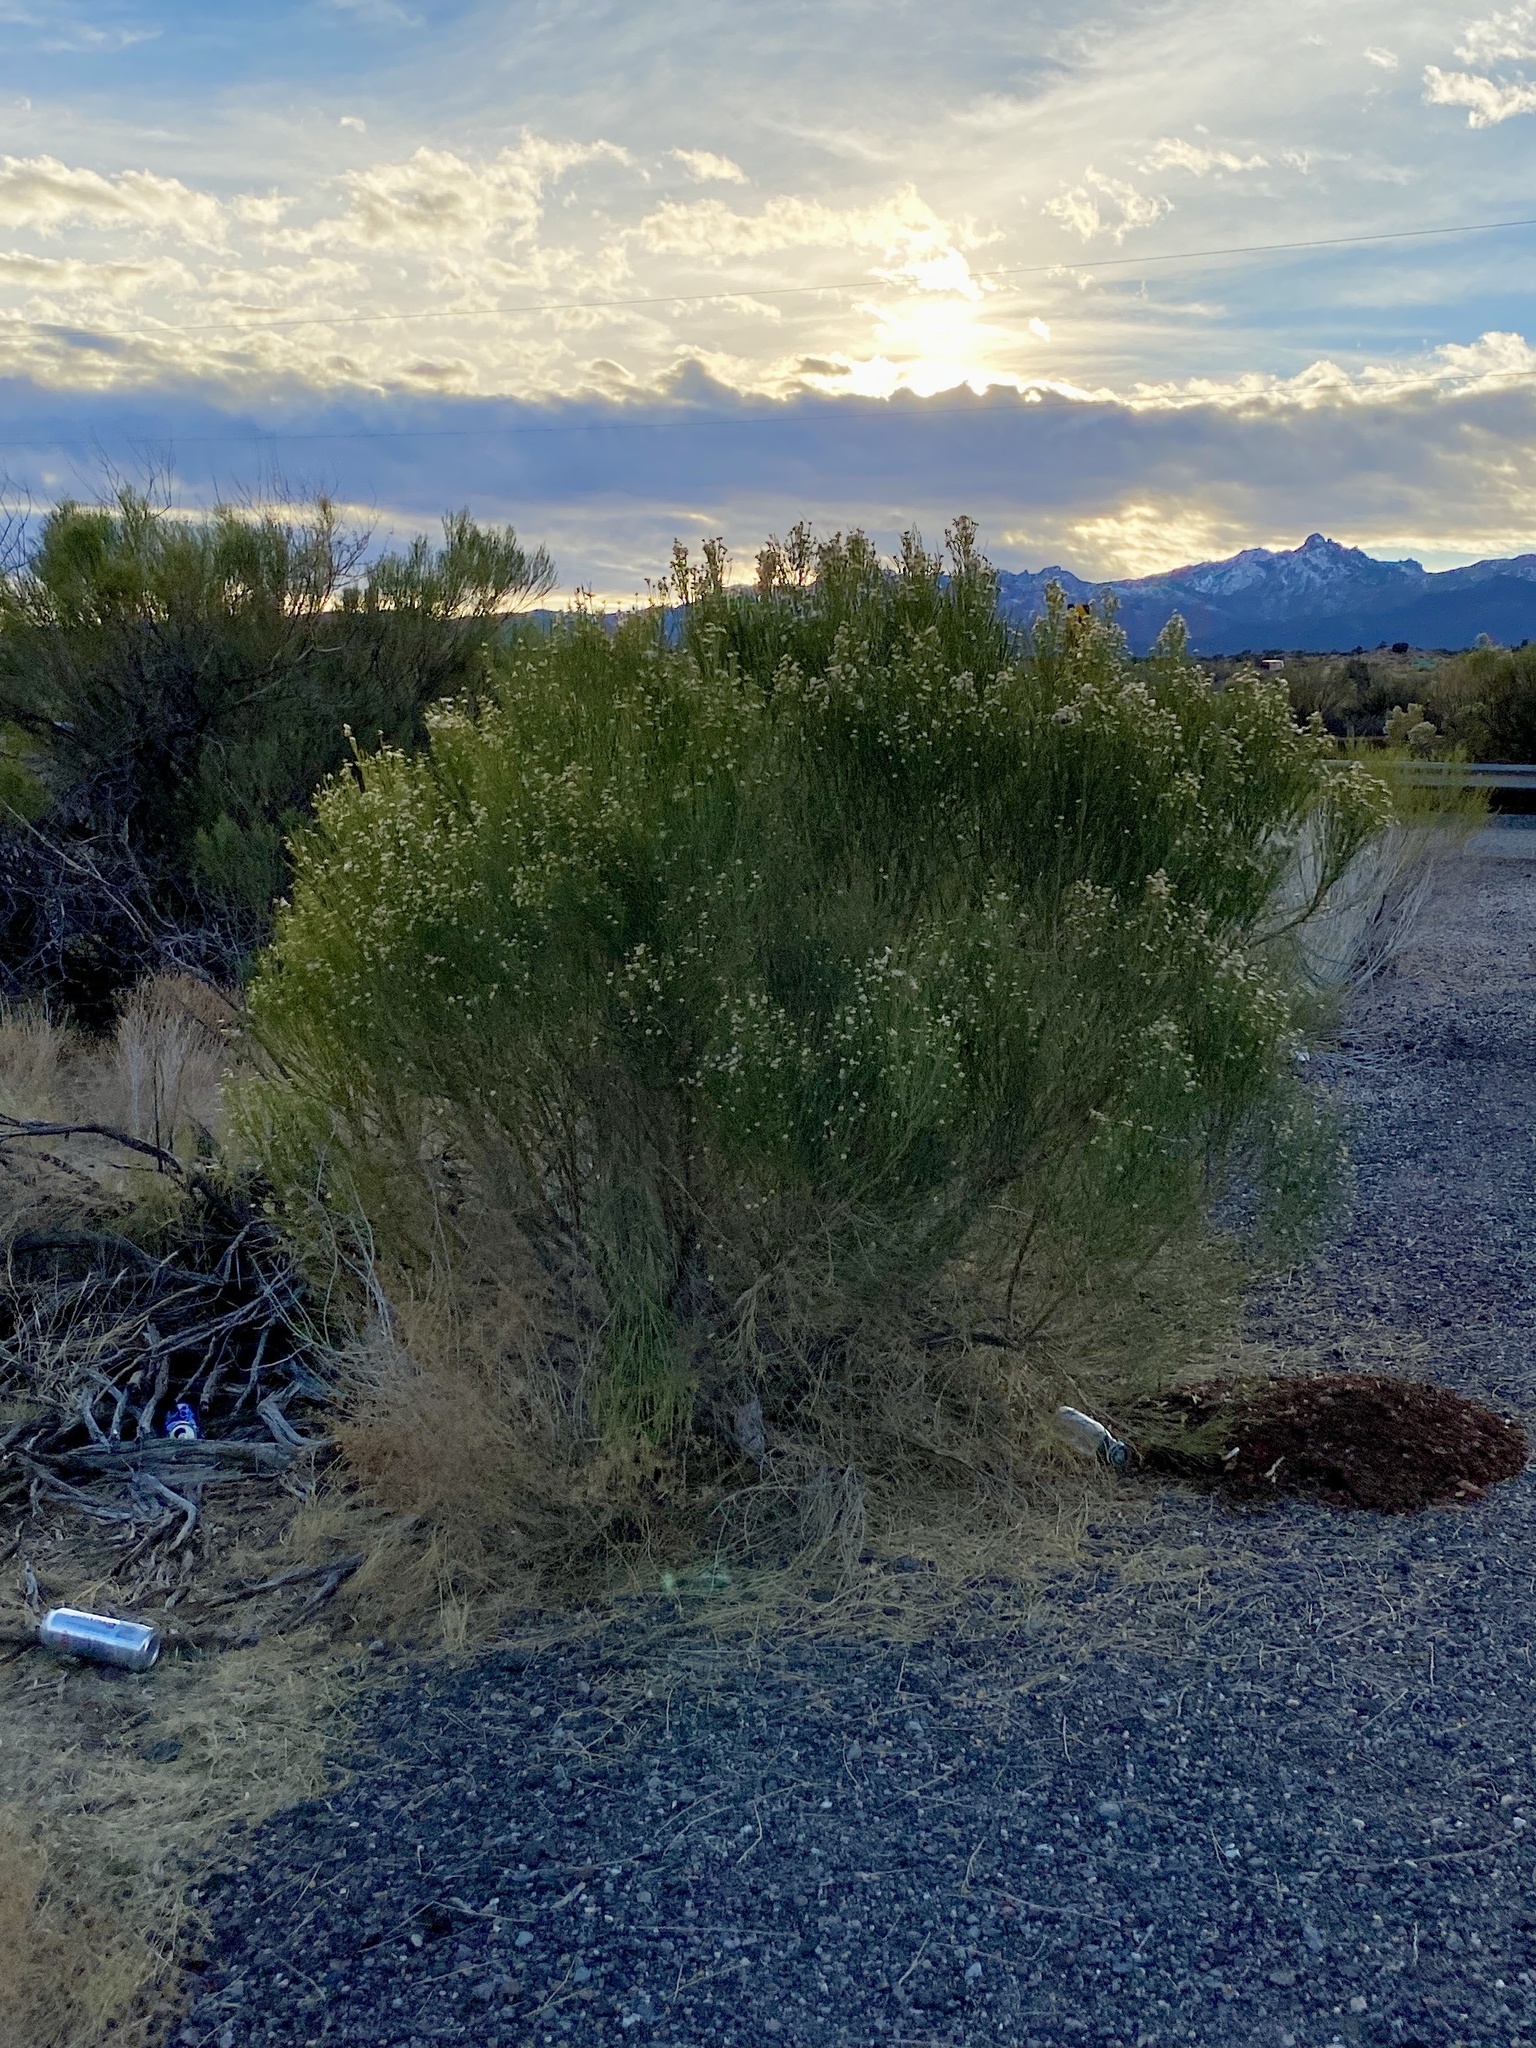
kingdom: Plantae
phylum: Tracheophyta
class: Magnoliopsida
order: Asterales
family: Asteraceae
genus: Baccharis
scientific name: Baccharis sarothroides
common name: Desert-broom
